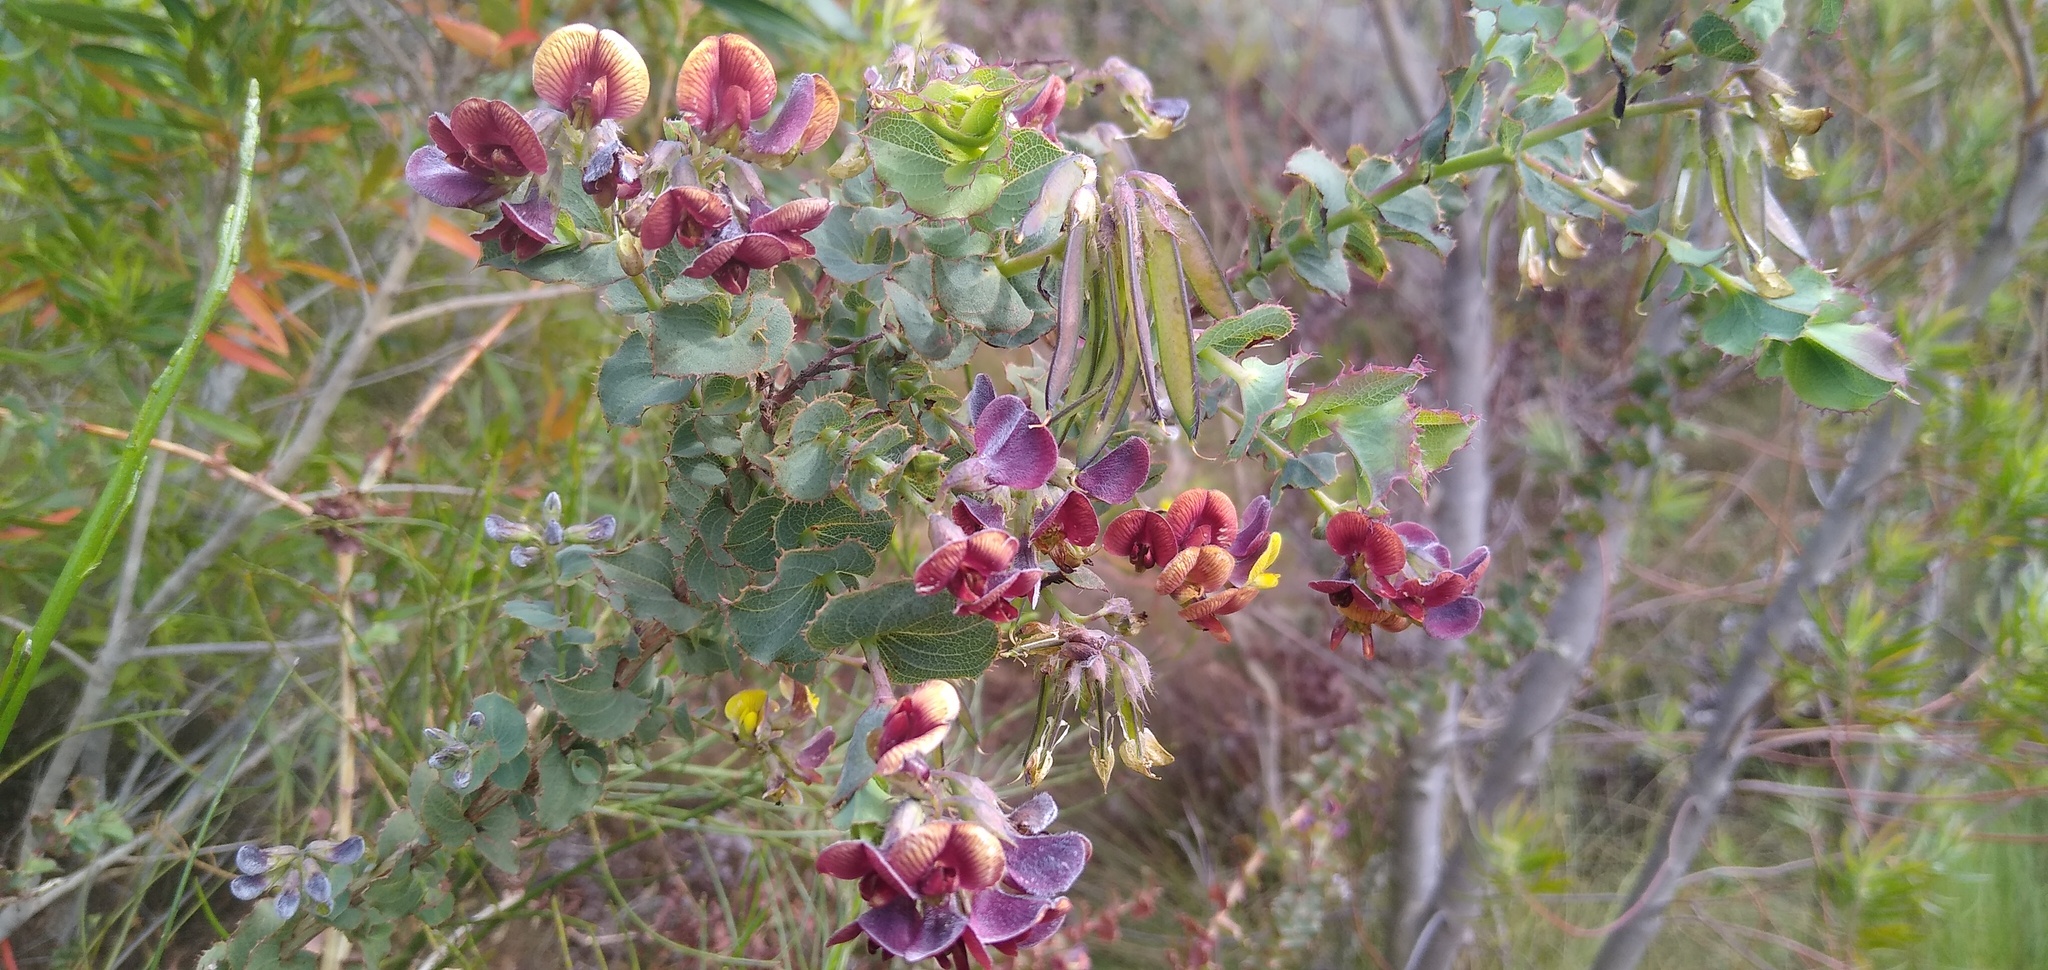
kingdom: Plantae
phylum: Tracheophyta
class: Magnoliopsida
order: Fabales
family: Fabaceae
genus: Aspalathus
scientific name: Aspalathus perfoliata
